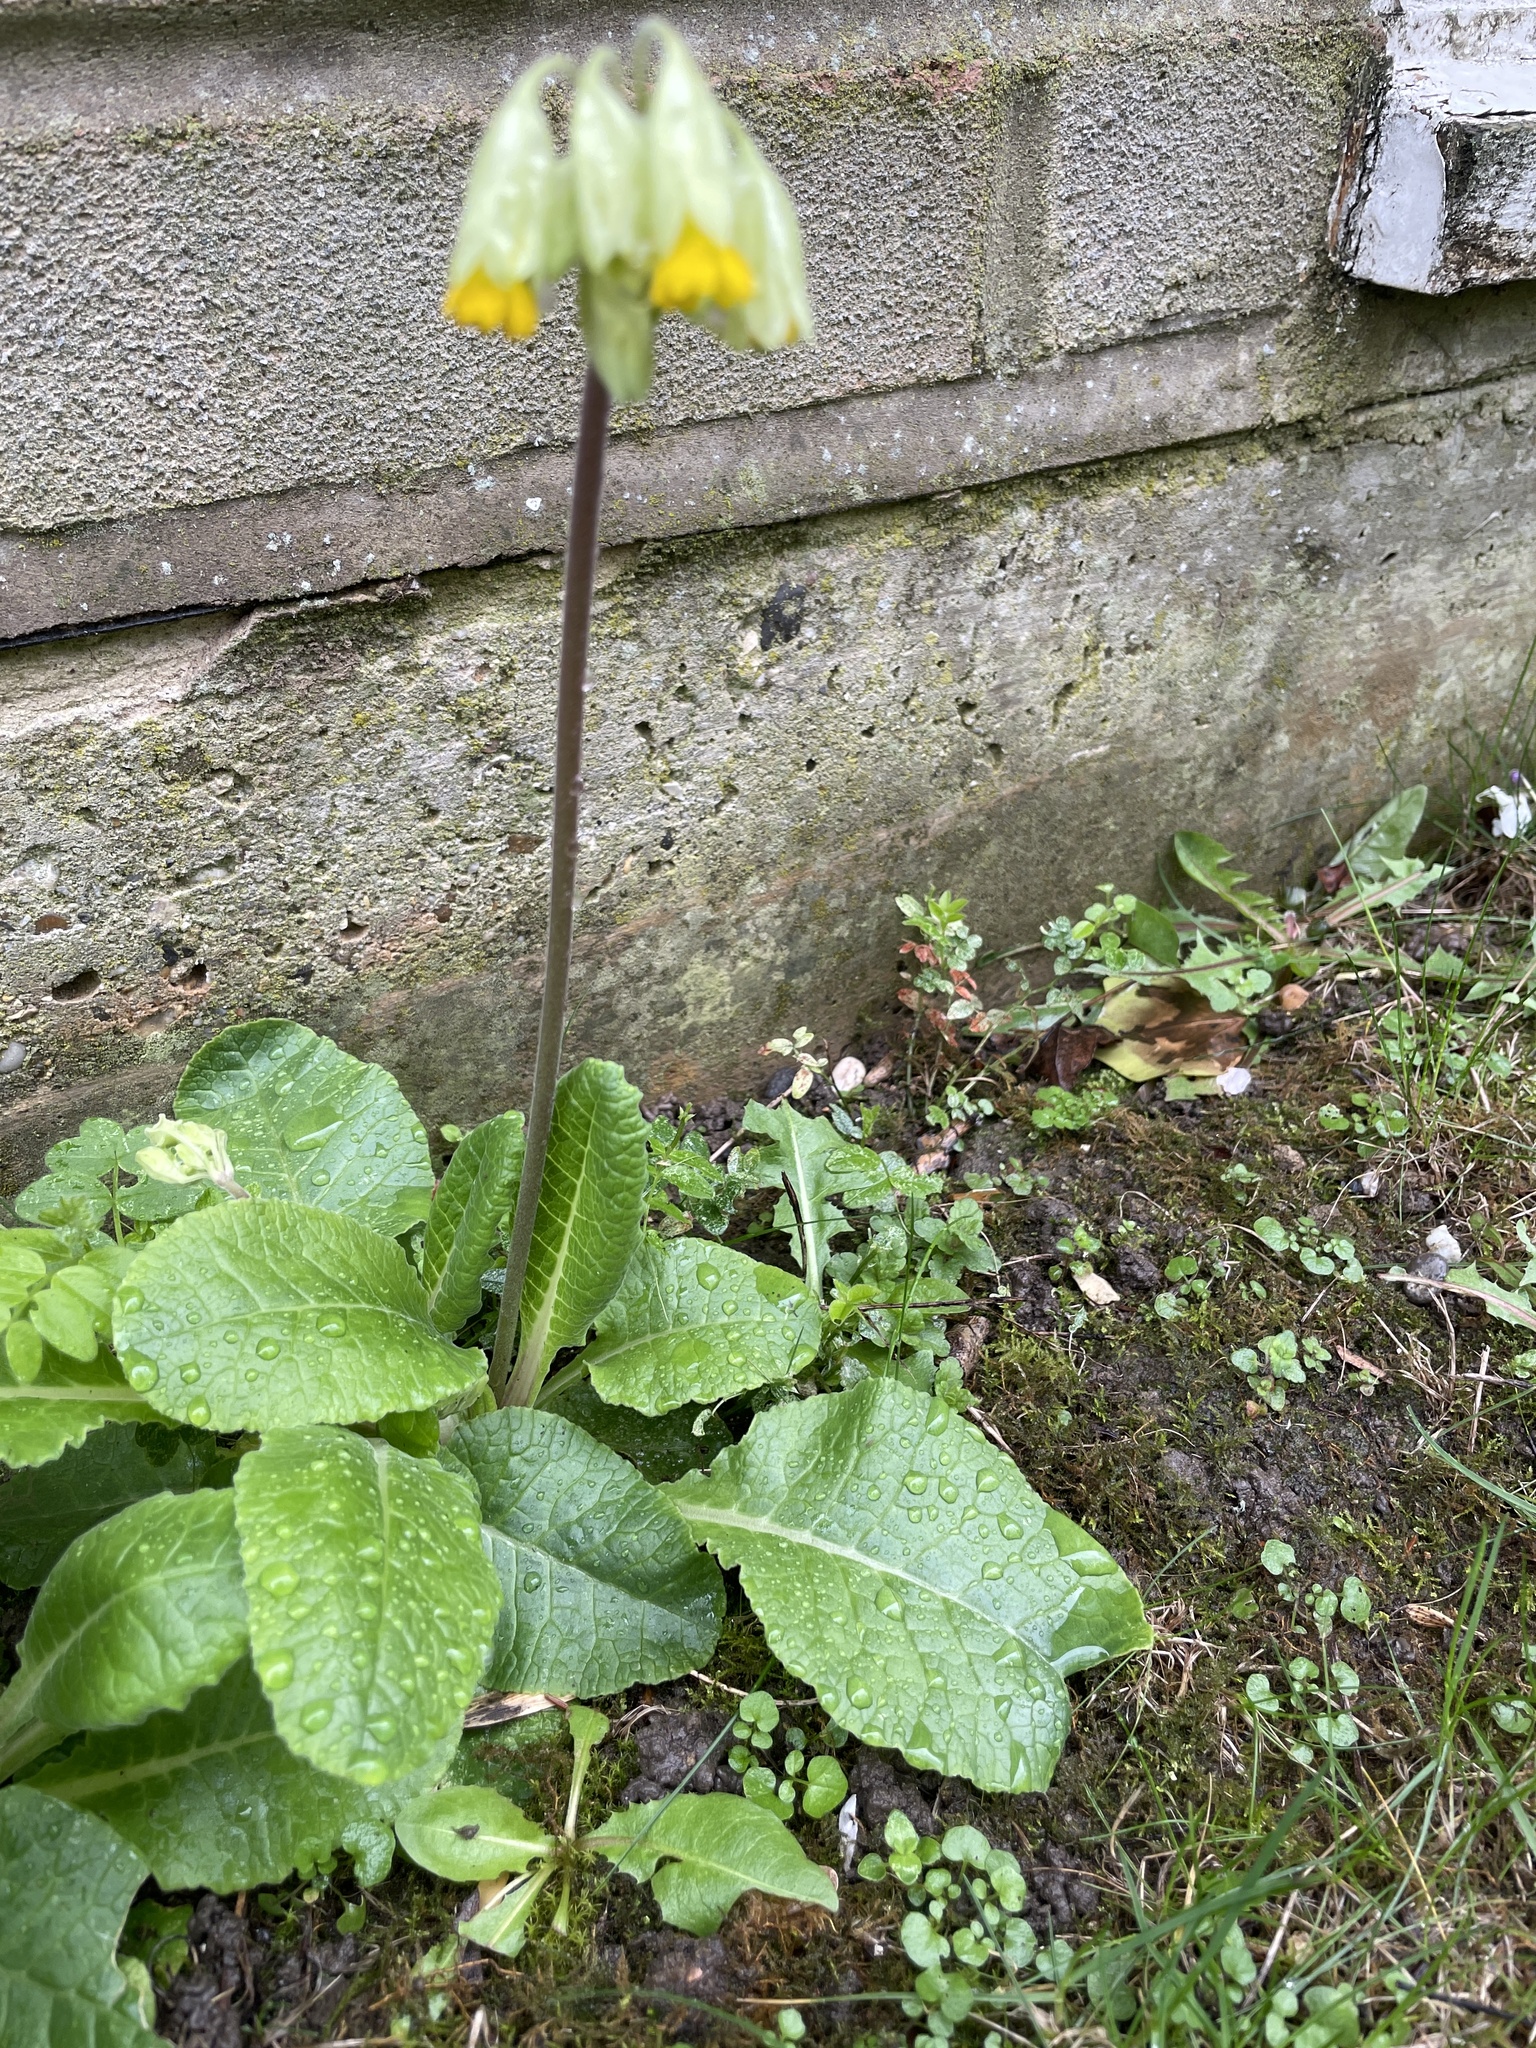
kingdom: Plantae
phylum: Tracheophyta
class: Magnoliopsida
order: Ericales
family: Primulaceae
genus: Primula
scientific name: Primula veris
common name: Cowslip
